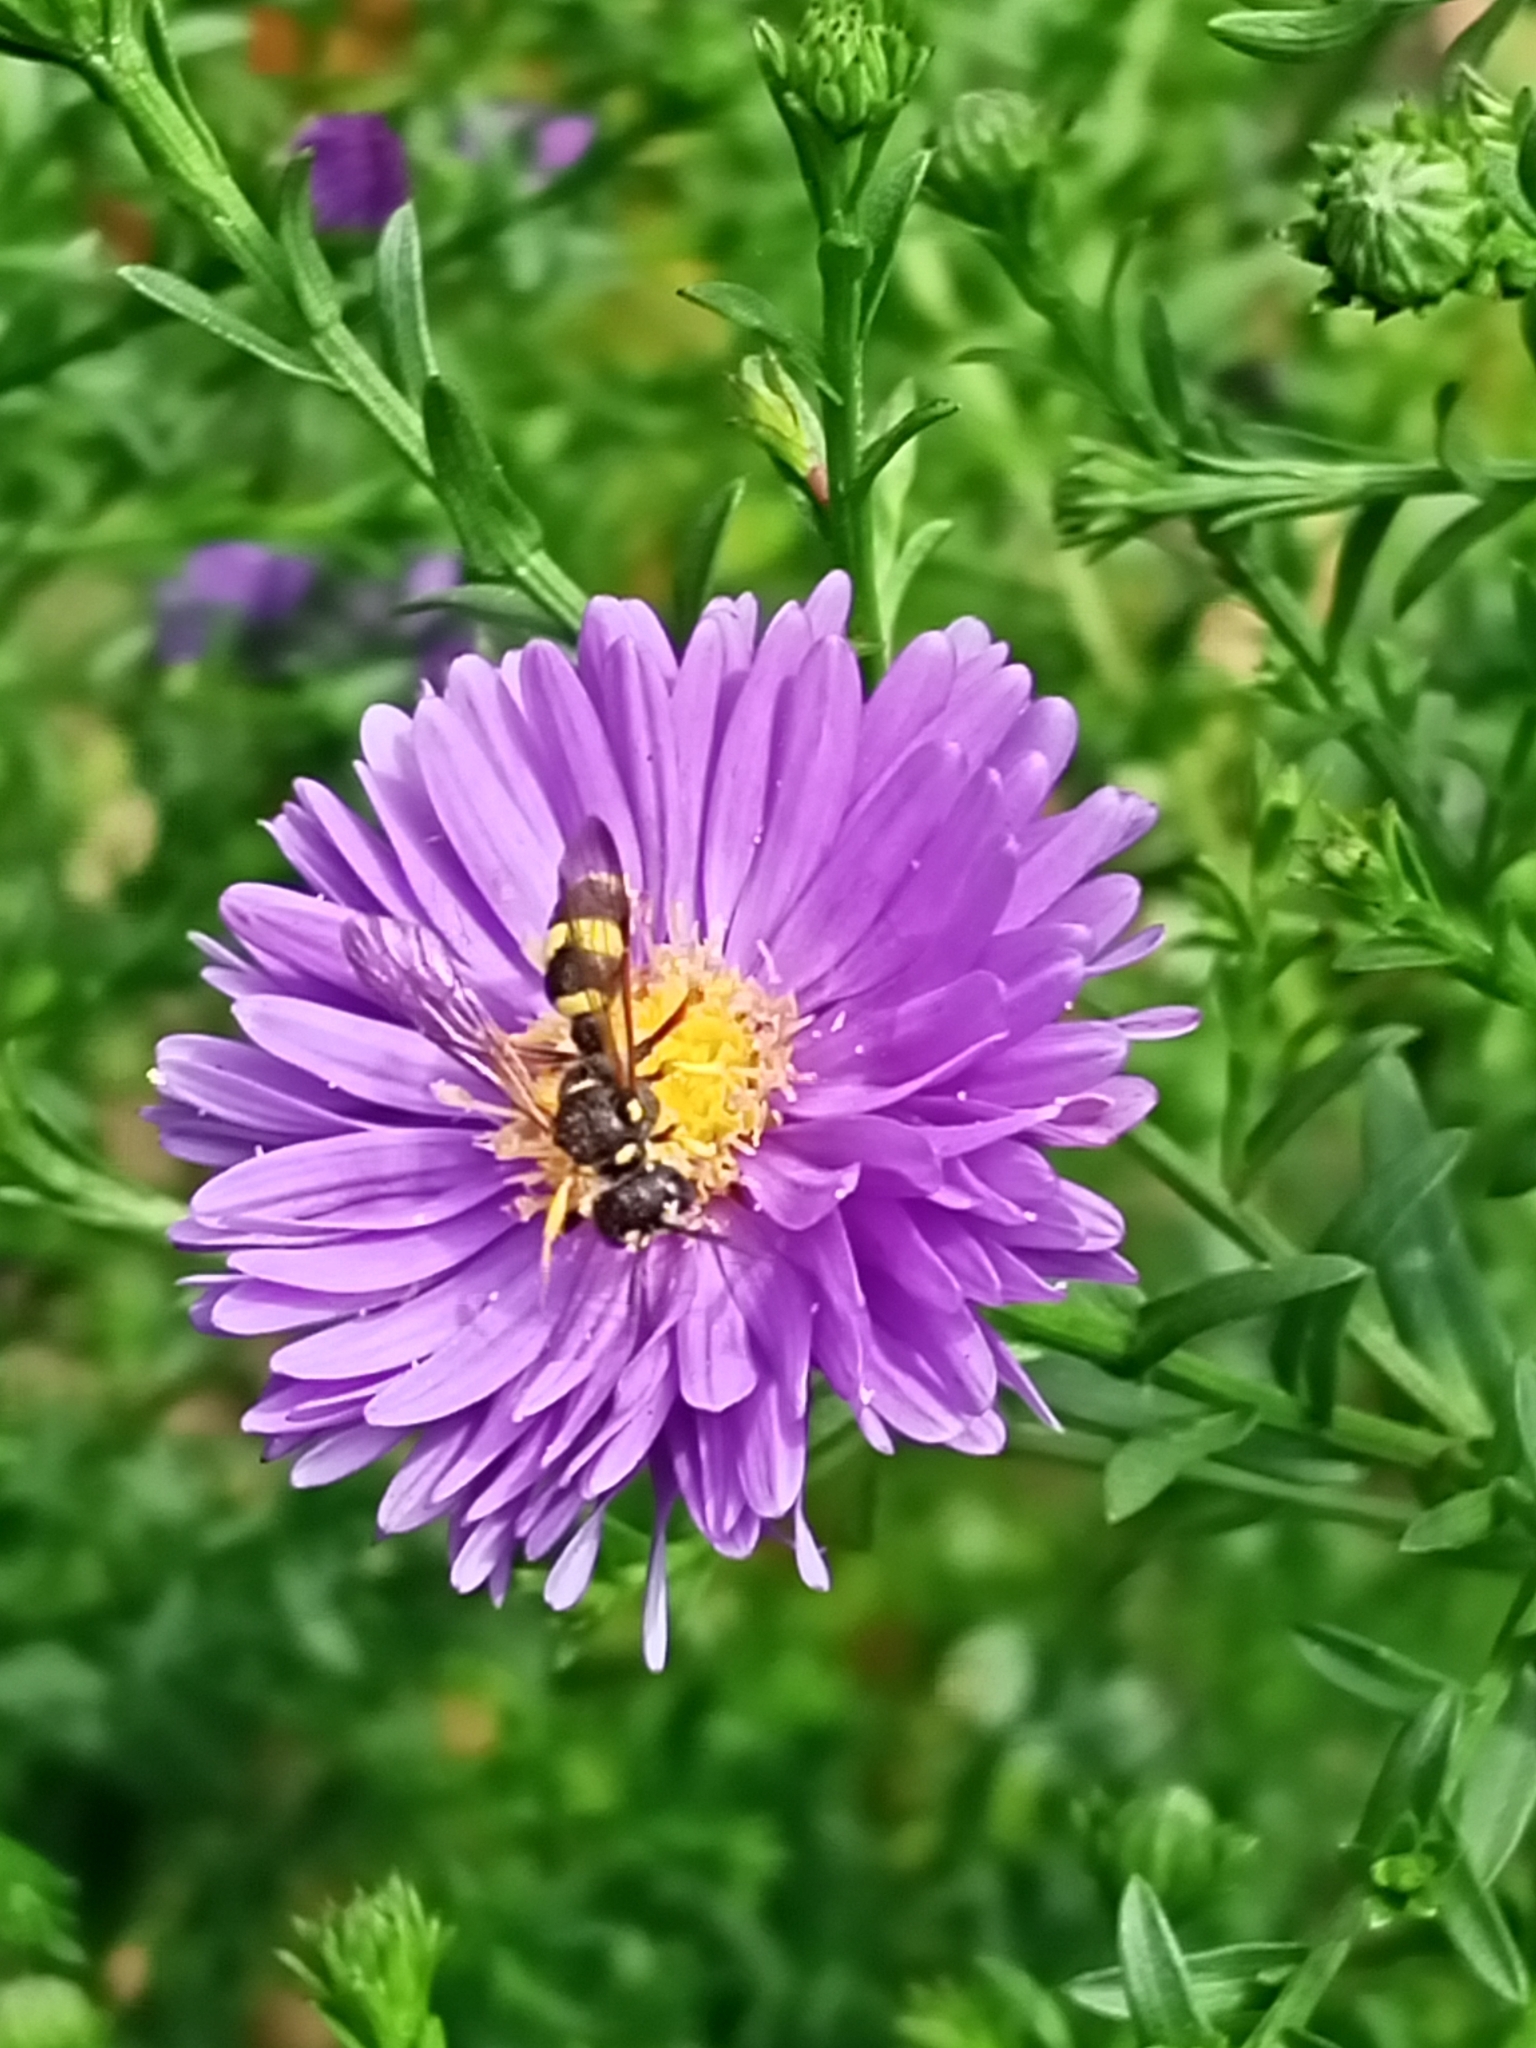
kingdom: Animalia
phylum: Arthropoda
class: Insecta
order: Hymenoptera
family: Crabronidae
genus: Cerceris
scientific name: Cerceris rybyensis
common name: Ornate tailed digger wasp
